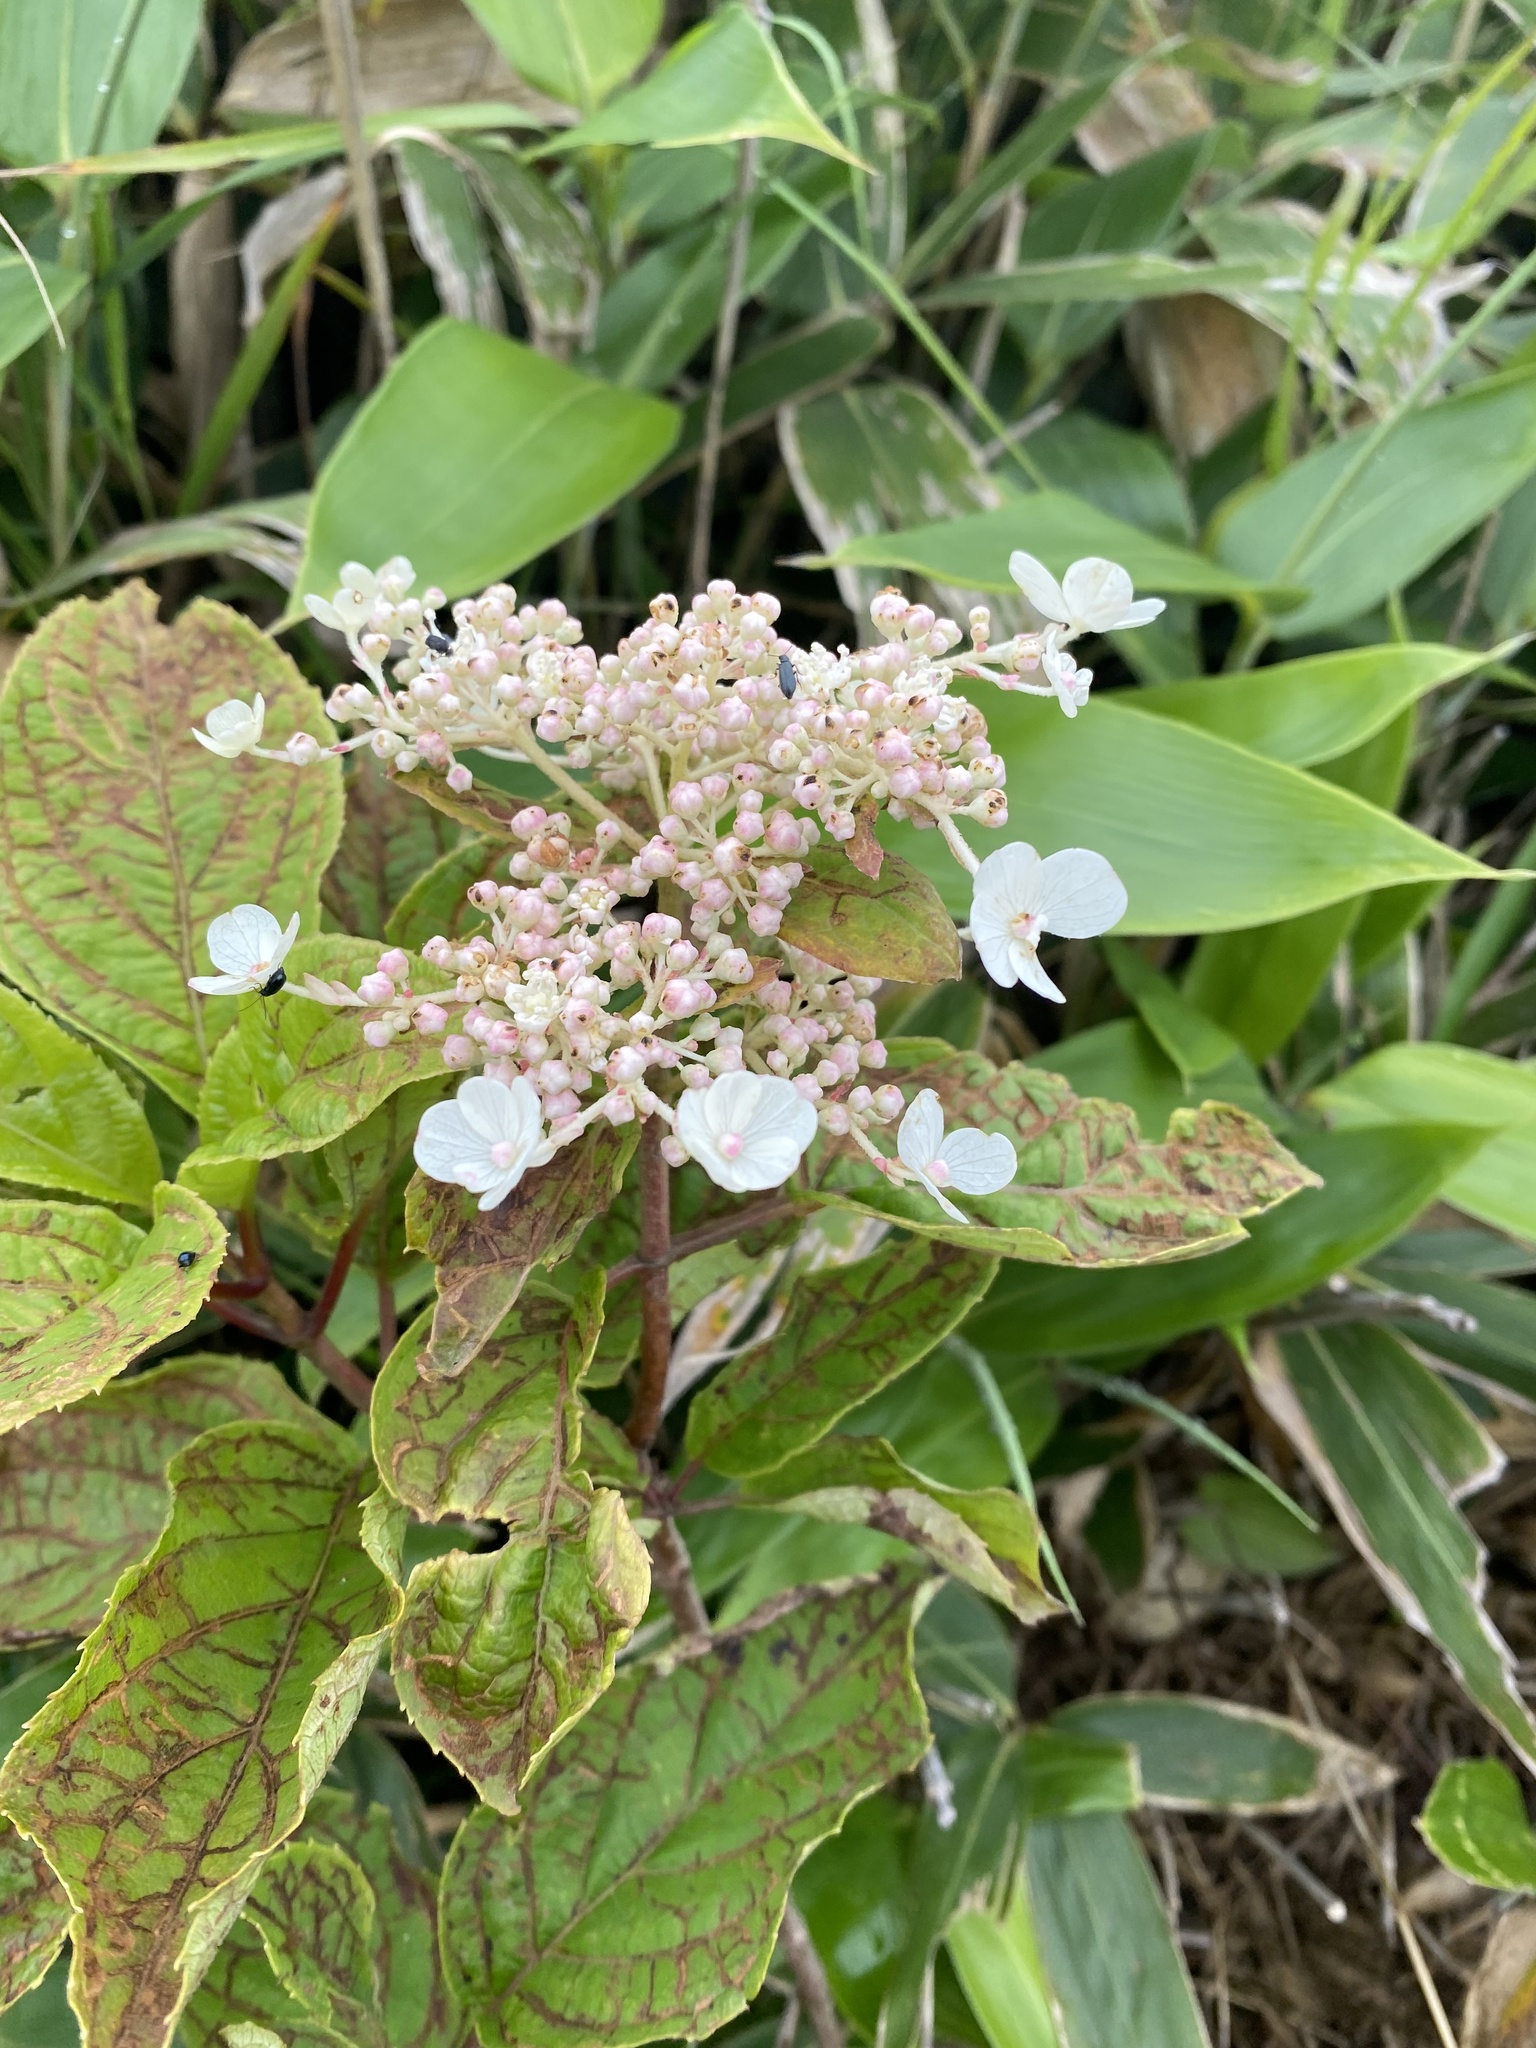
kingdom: Plantae
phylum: Tracheophyta
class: Magnoliopsida
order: Cornales
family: Hydrangeaceae
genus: Hydrangea
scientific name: Hydrangea paniculata
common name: Panicled hydrangea
